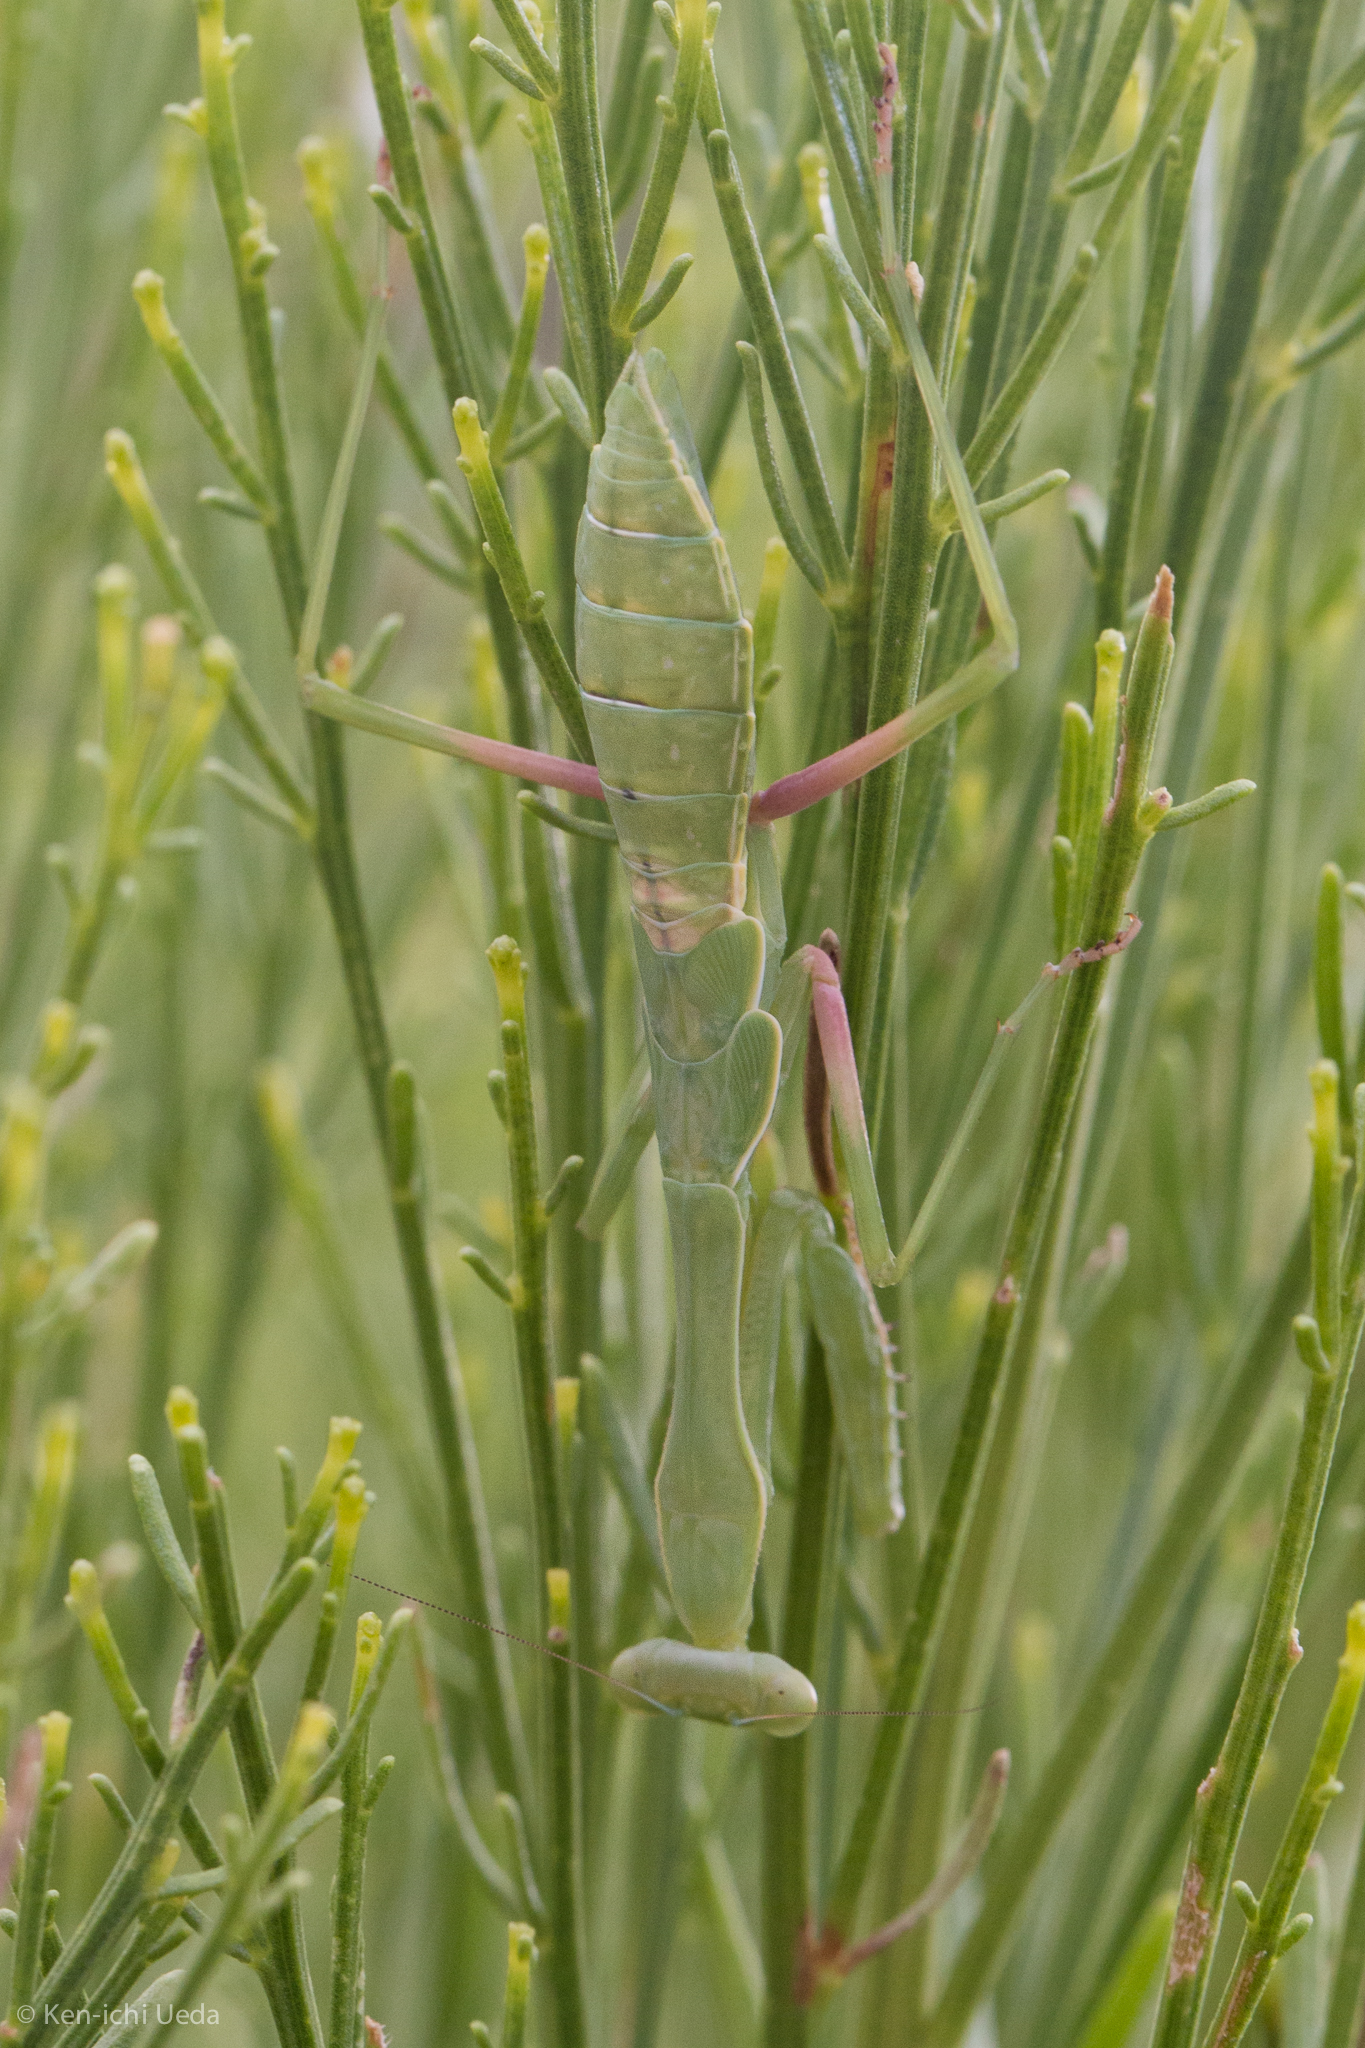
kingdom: Animalia
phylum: Arthropoda
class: Insecta
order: Mantodea
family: Mantidae
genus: Stagmomantis
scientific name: Stagmomantis limbata
